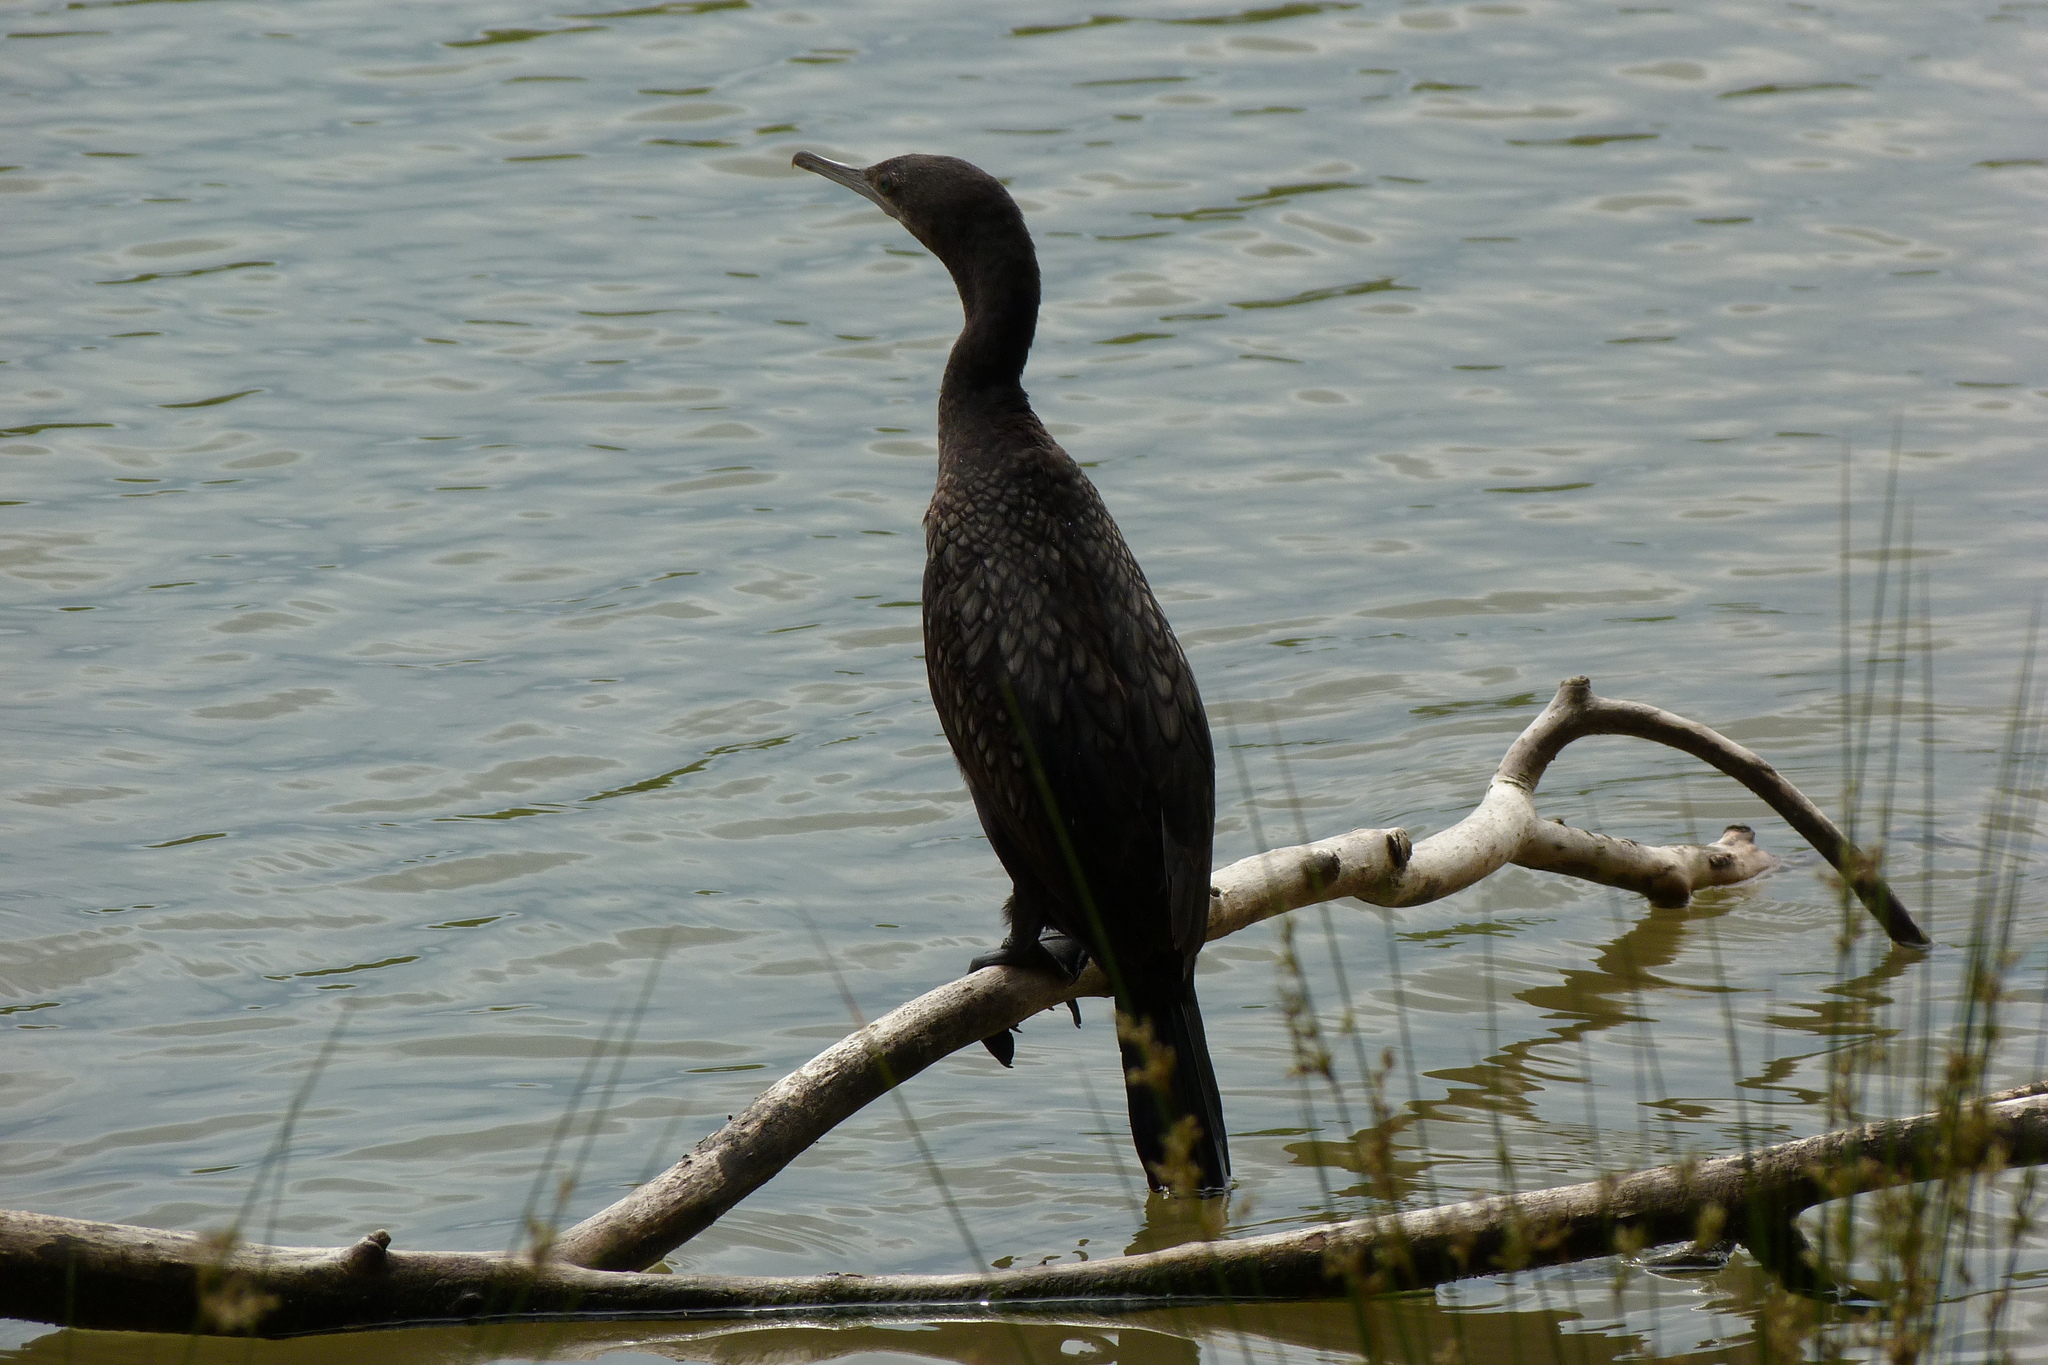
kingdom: Animalia
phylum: Chordata
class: Aves
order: Suliformes
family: Phalacrocoracidae
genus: Phalacrocorax
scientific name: Phalacrocorax sulcirostris
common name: Little black cormorant
